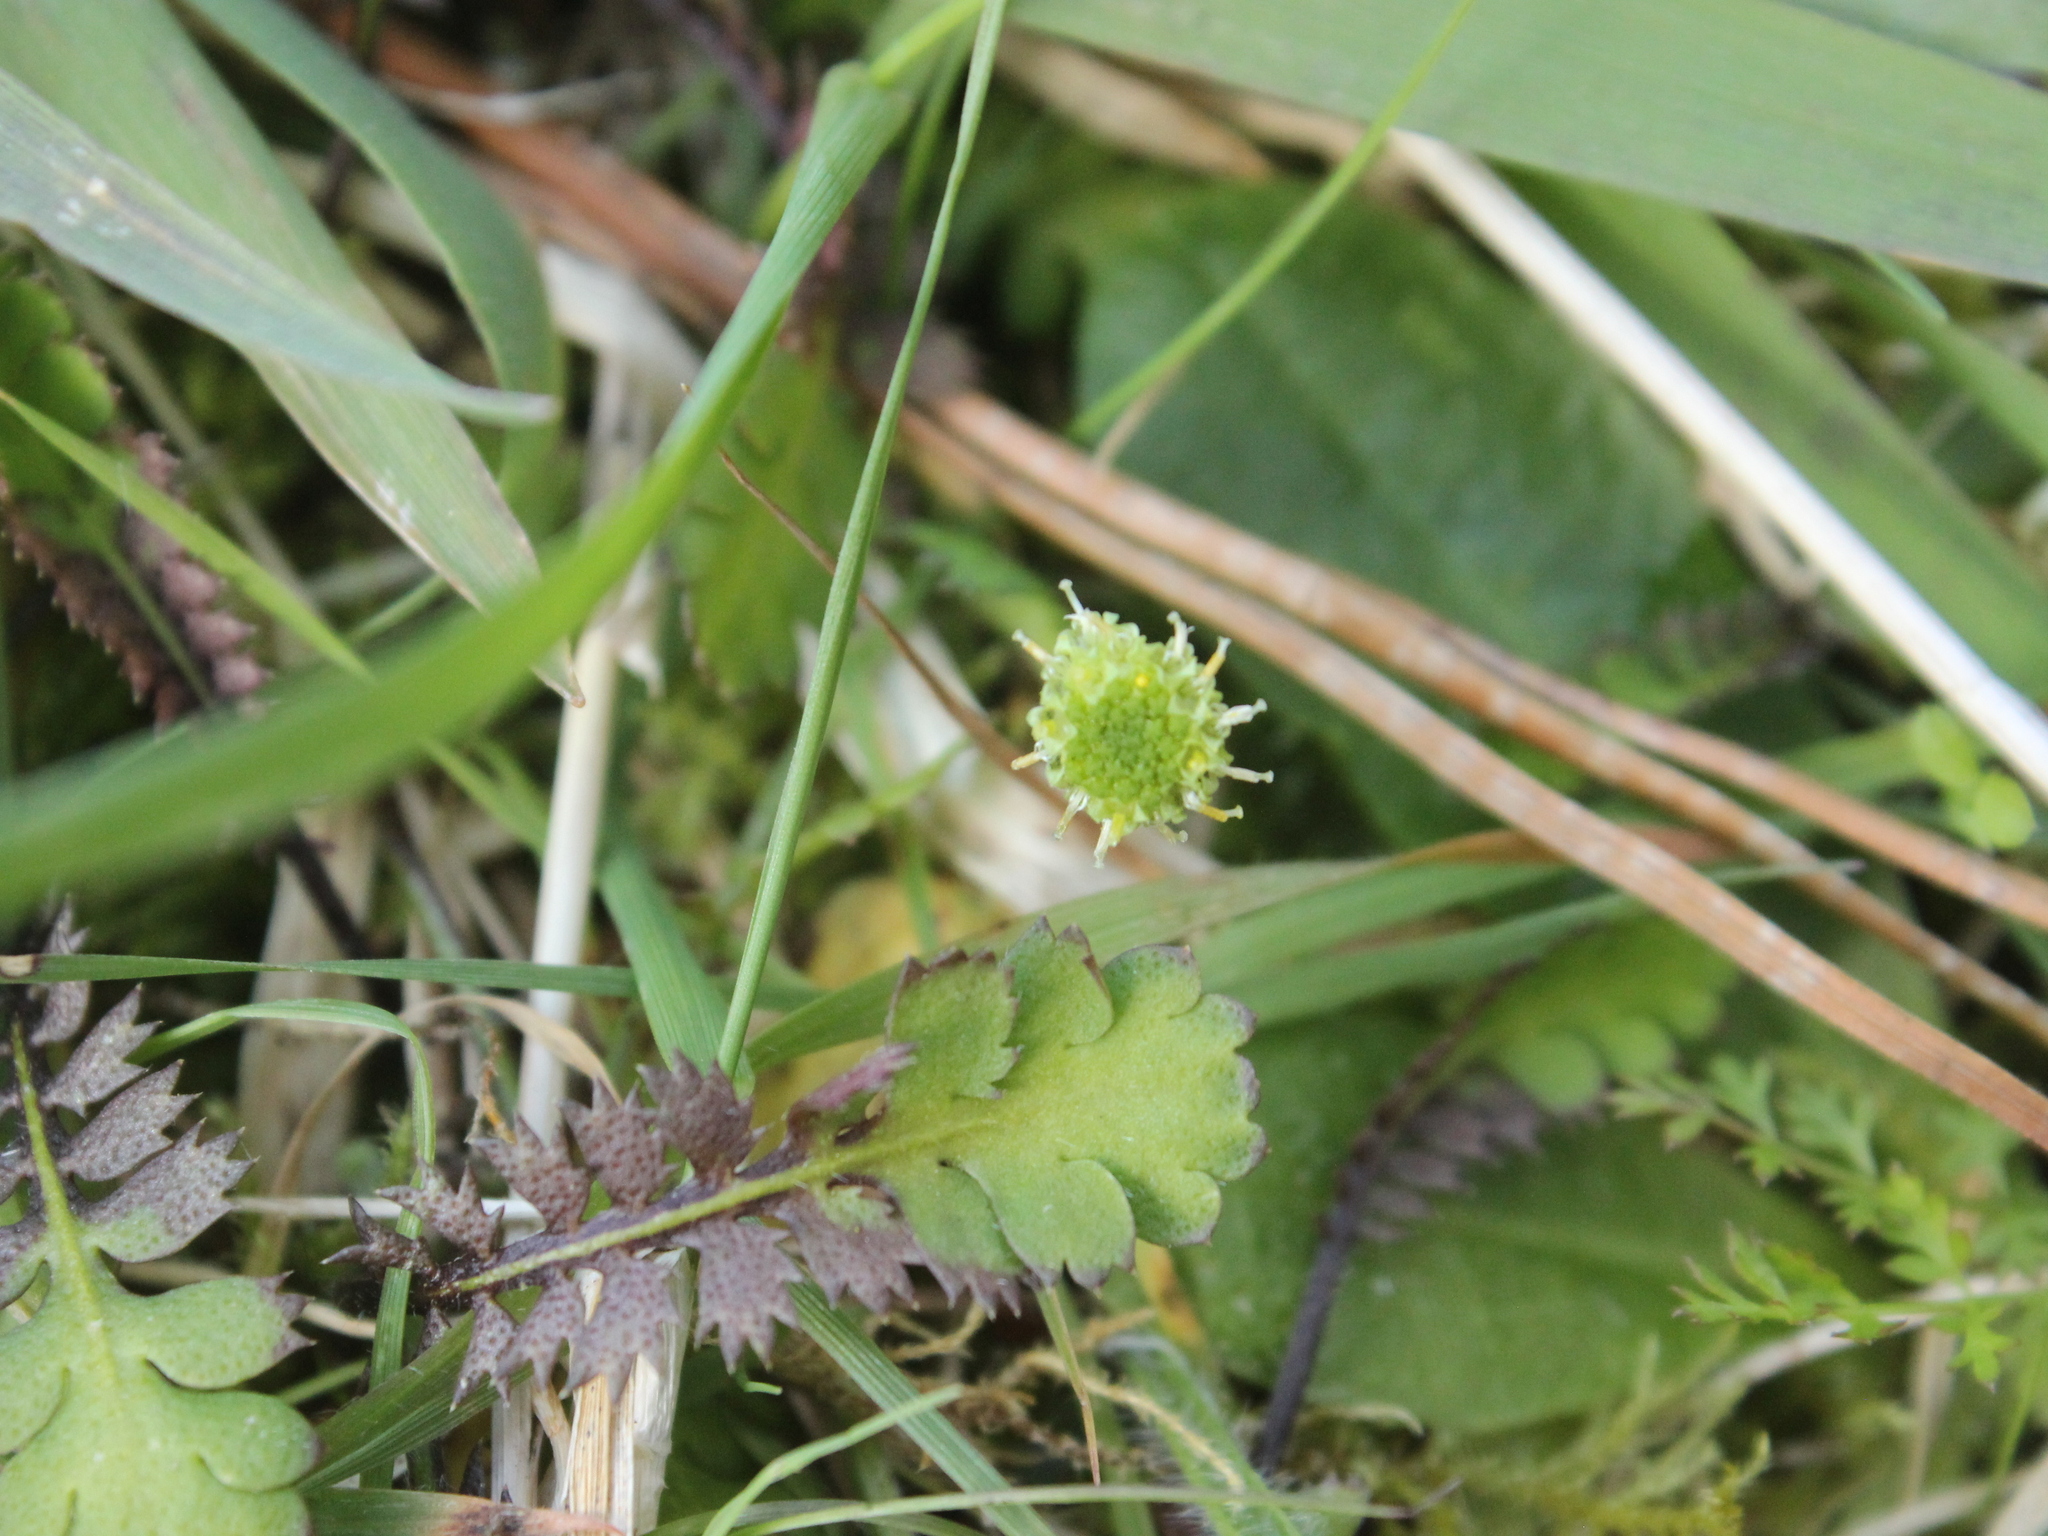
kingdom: Plantae
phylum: Tracheophyta
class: Magnoliopsida
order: Asterales
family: Asteraceae
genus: Leptinella
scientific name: Leptinella squalida
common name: New zealand brass-buttons
